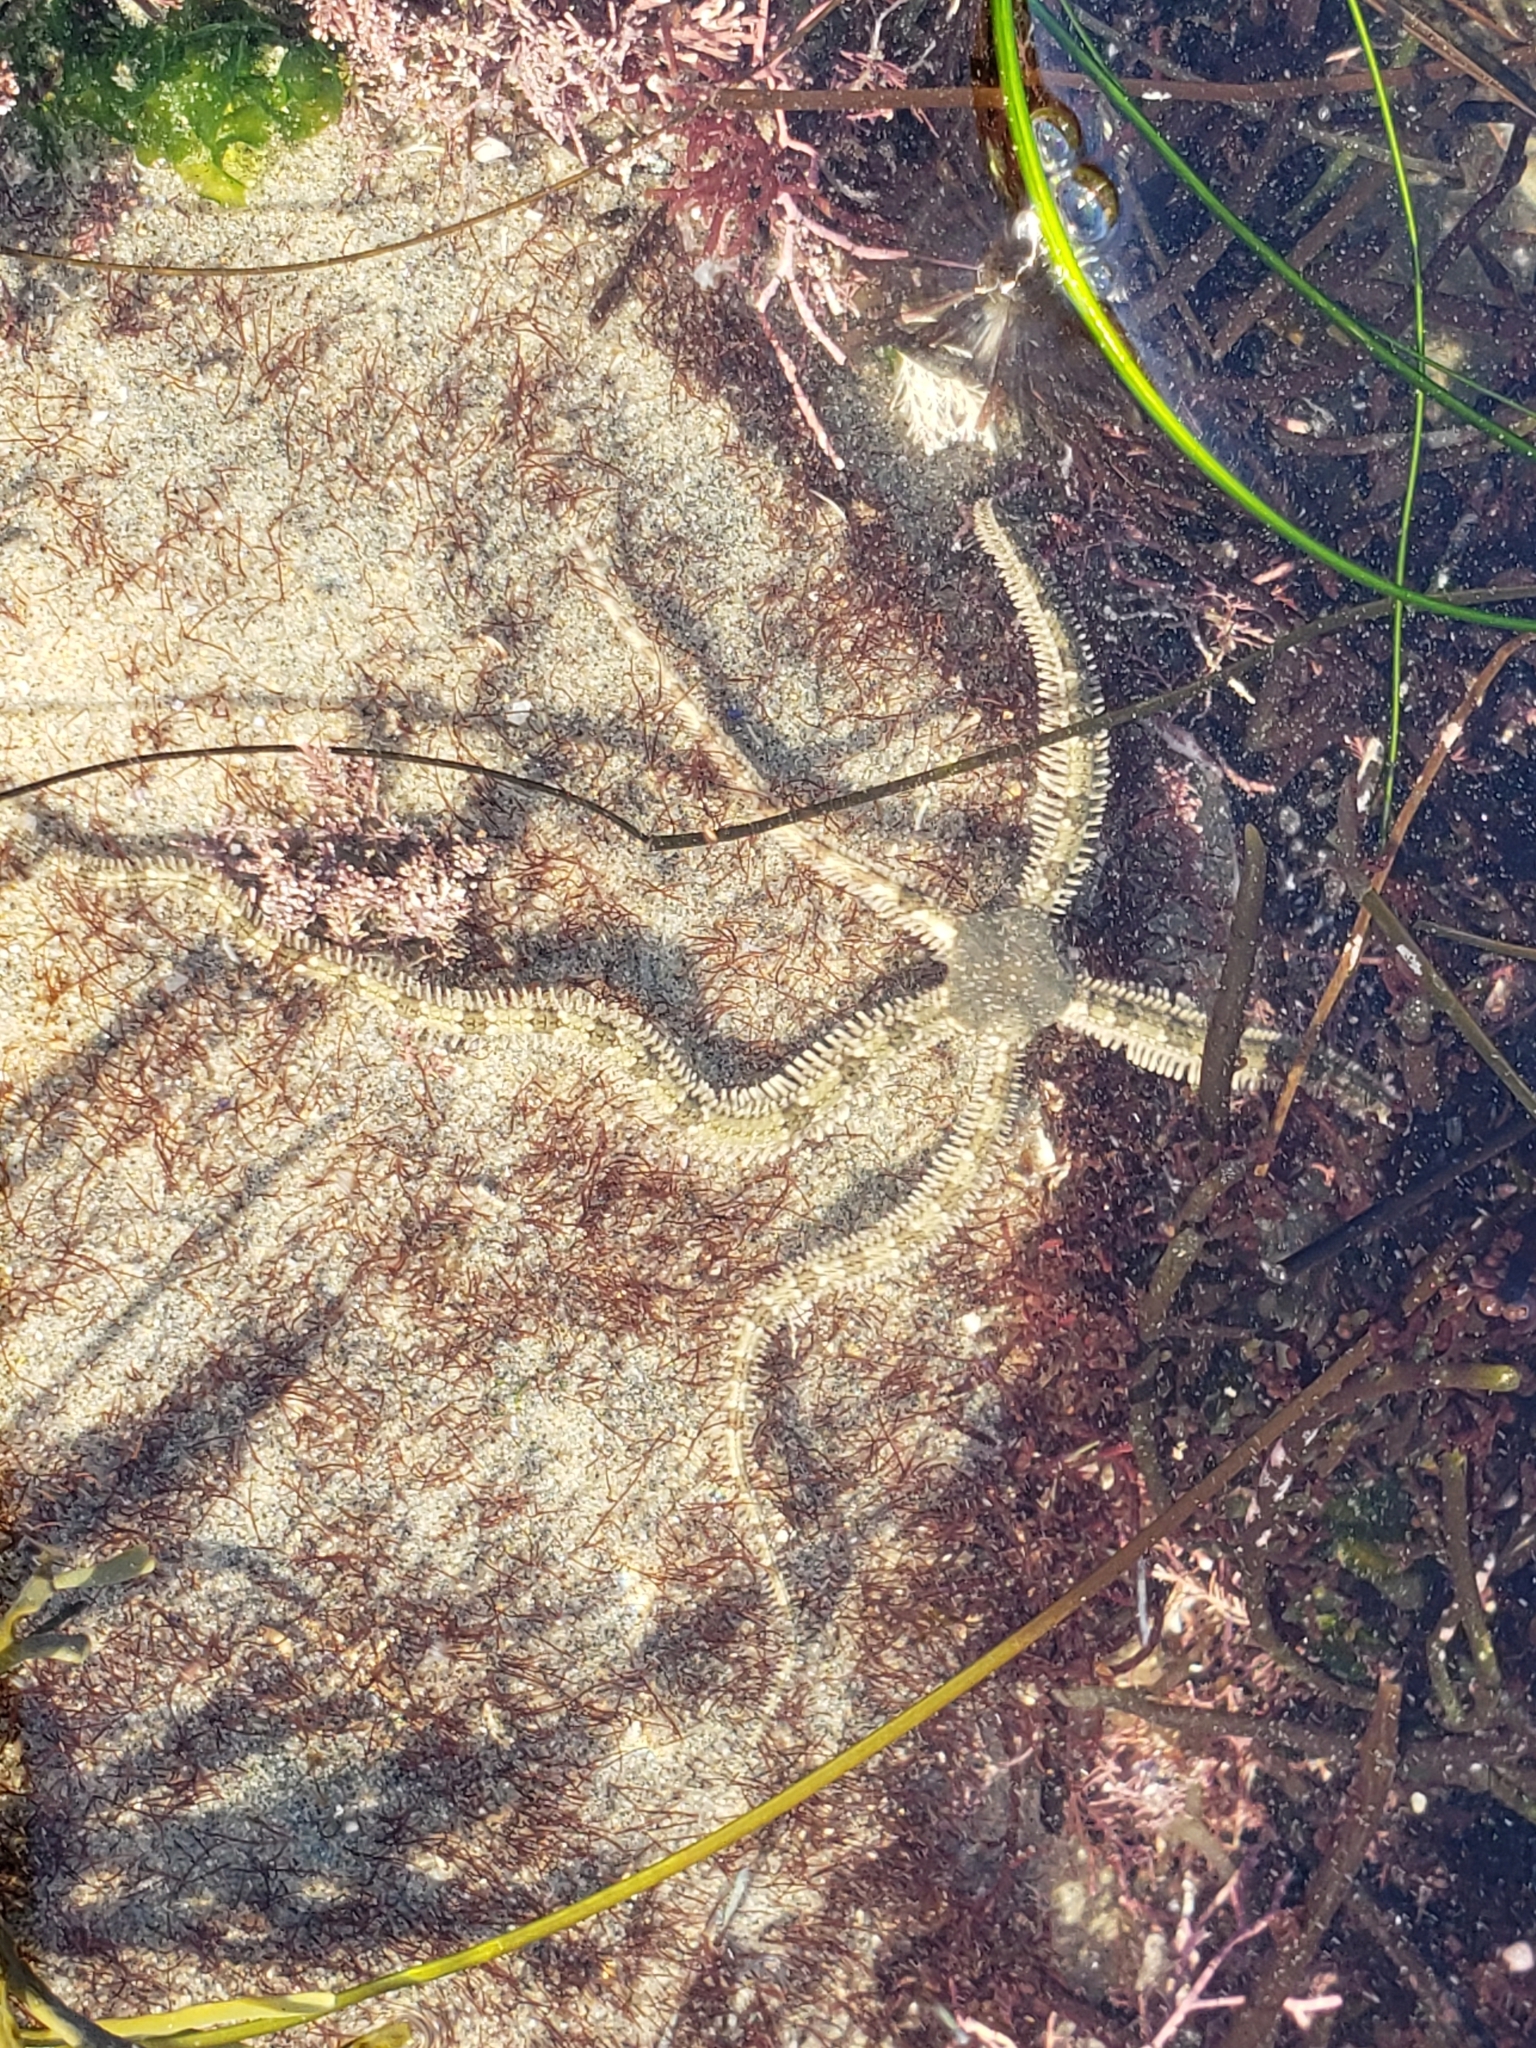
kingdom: Animalia
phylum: Echinodermata
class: Ophiuroidea
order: Amphilepidida
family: Ophionereididae
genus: Ophionereis
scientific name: Ophionereis annulata
